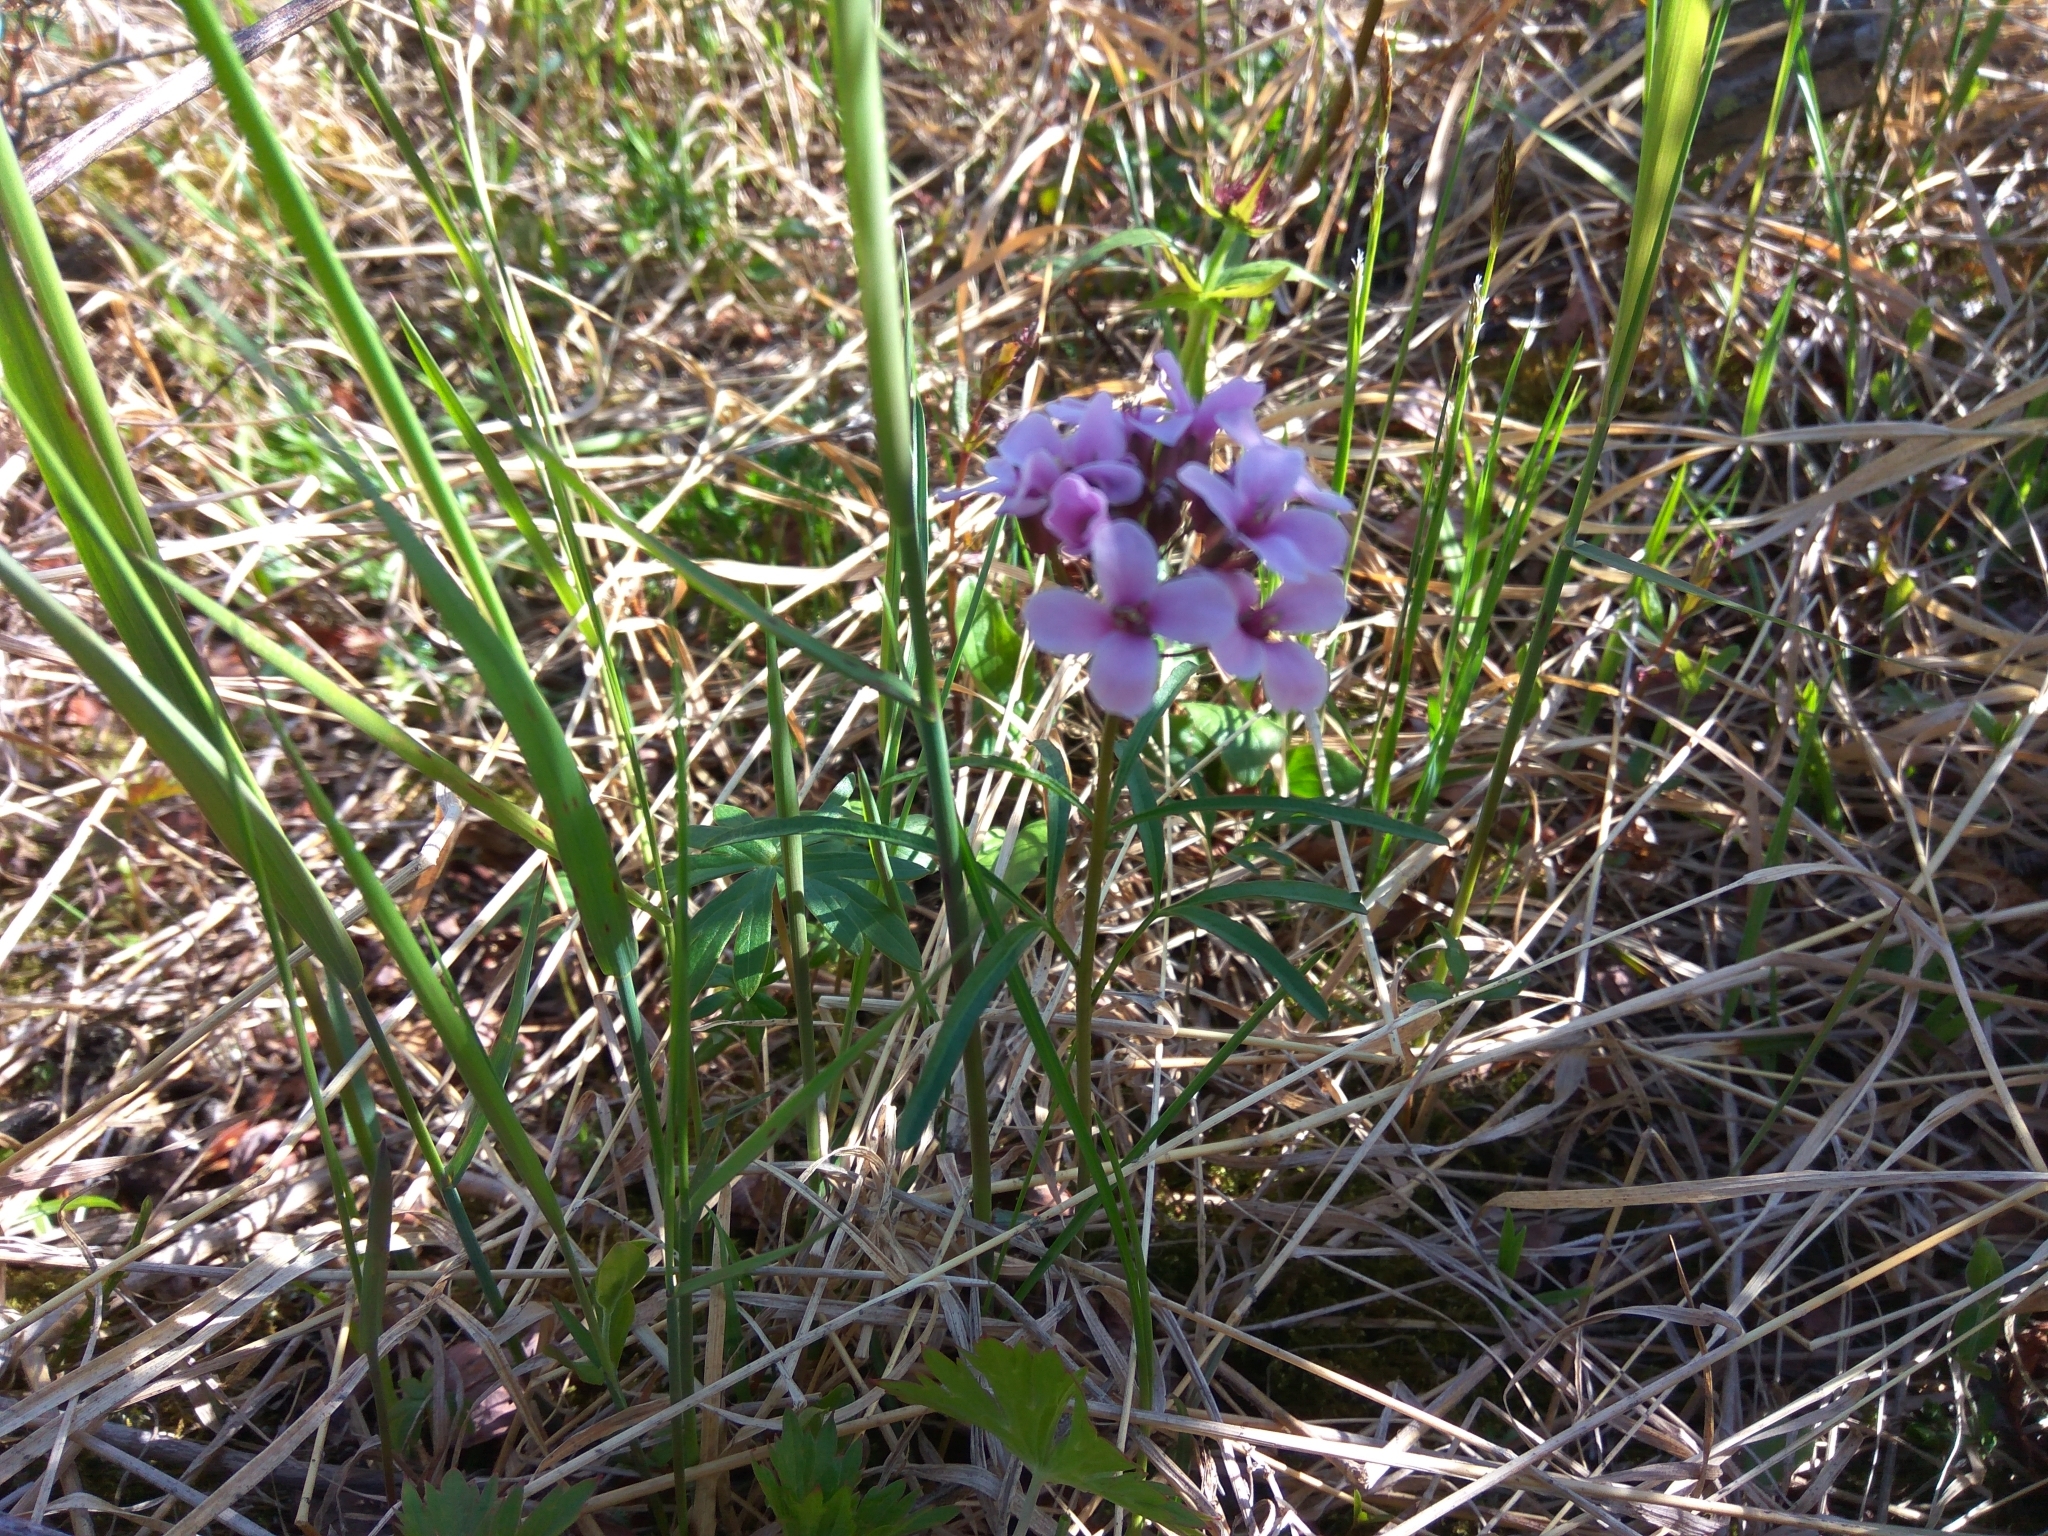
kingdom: Plantae
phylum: Tracheophyta
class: Magnoliopsida
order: Brassicales
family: Brassicaceae
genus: Cardamine
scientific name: Cardamine pratensis
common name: Cuckoo flower
